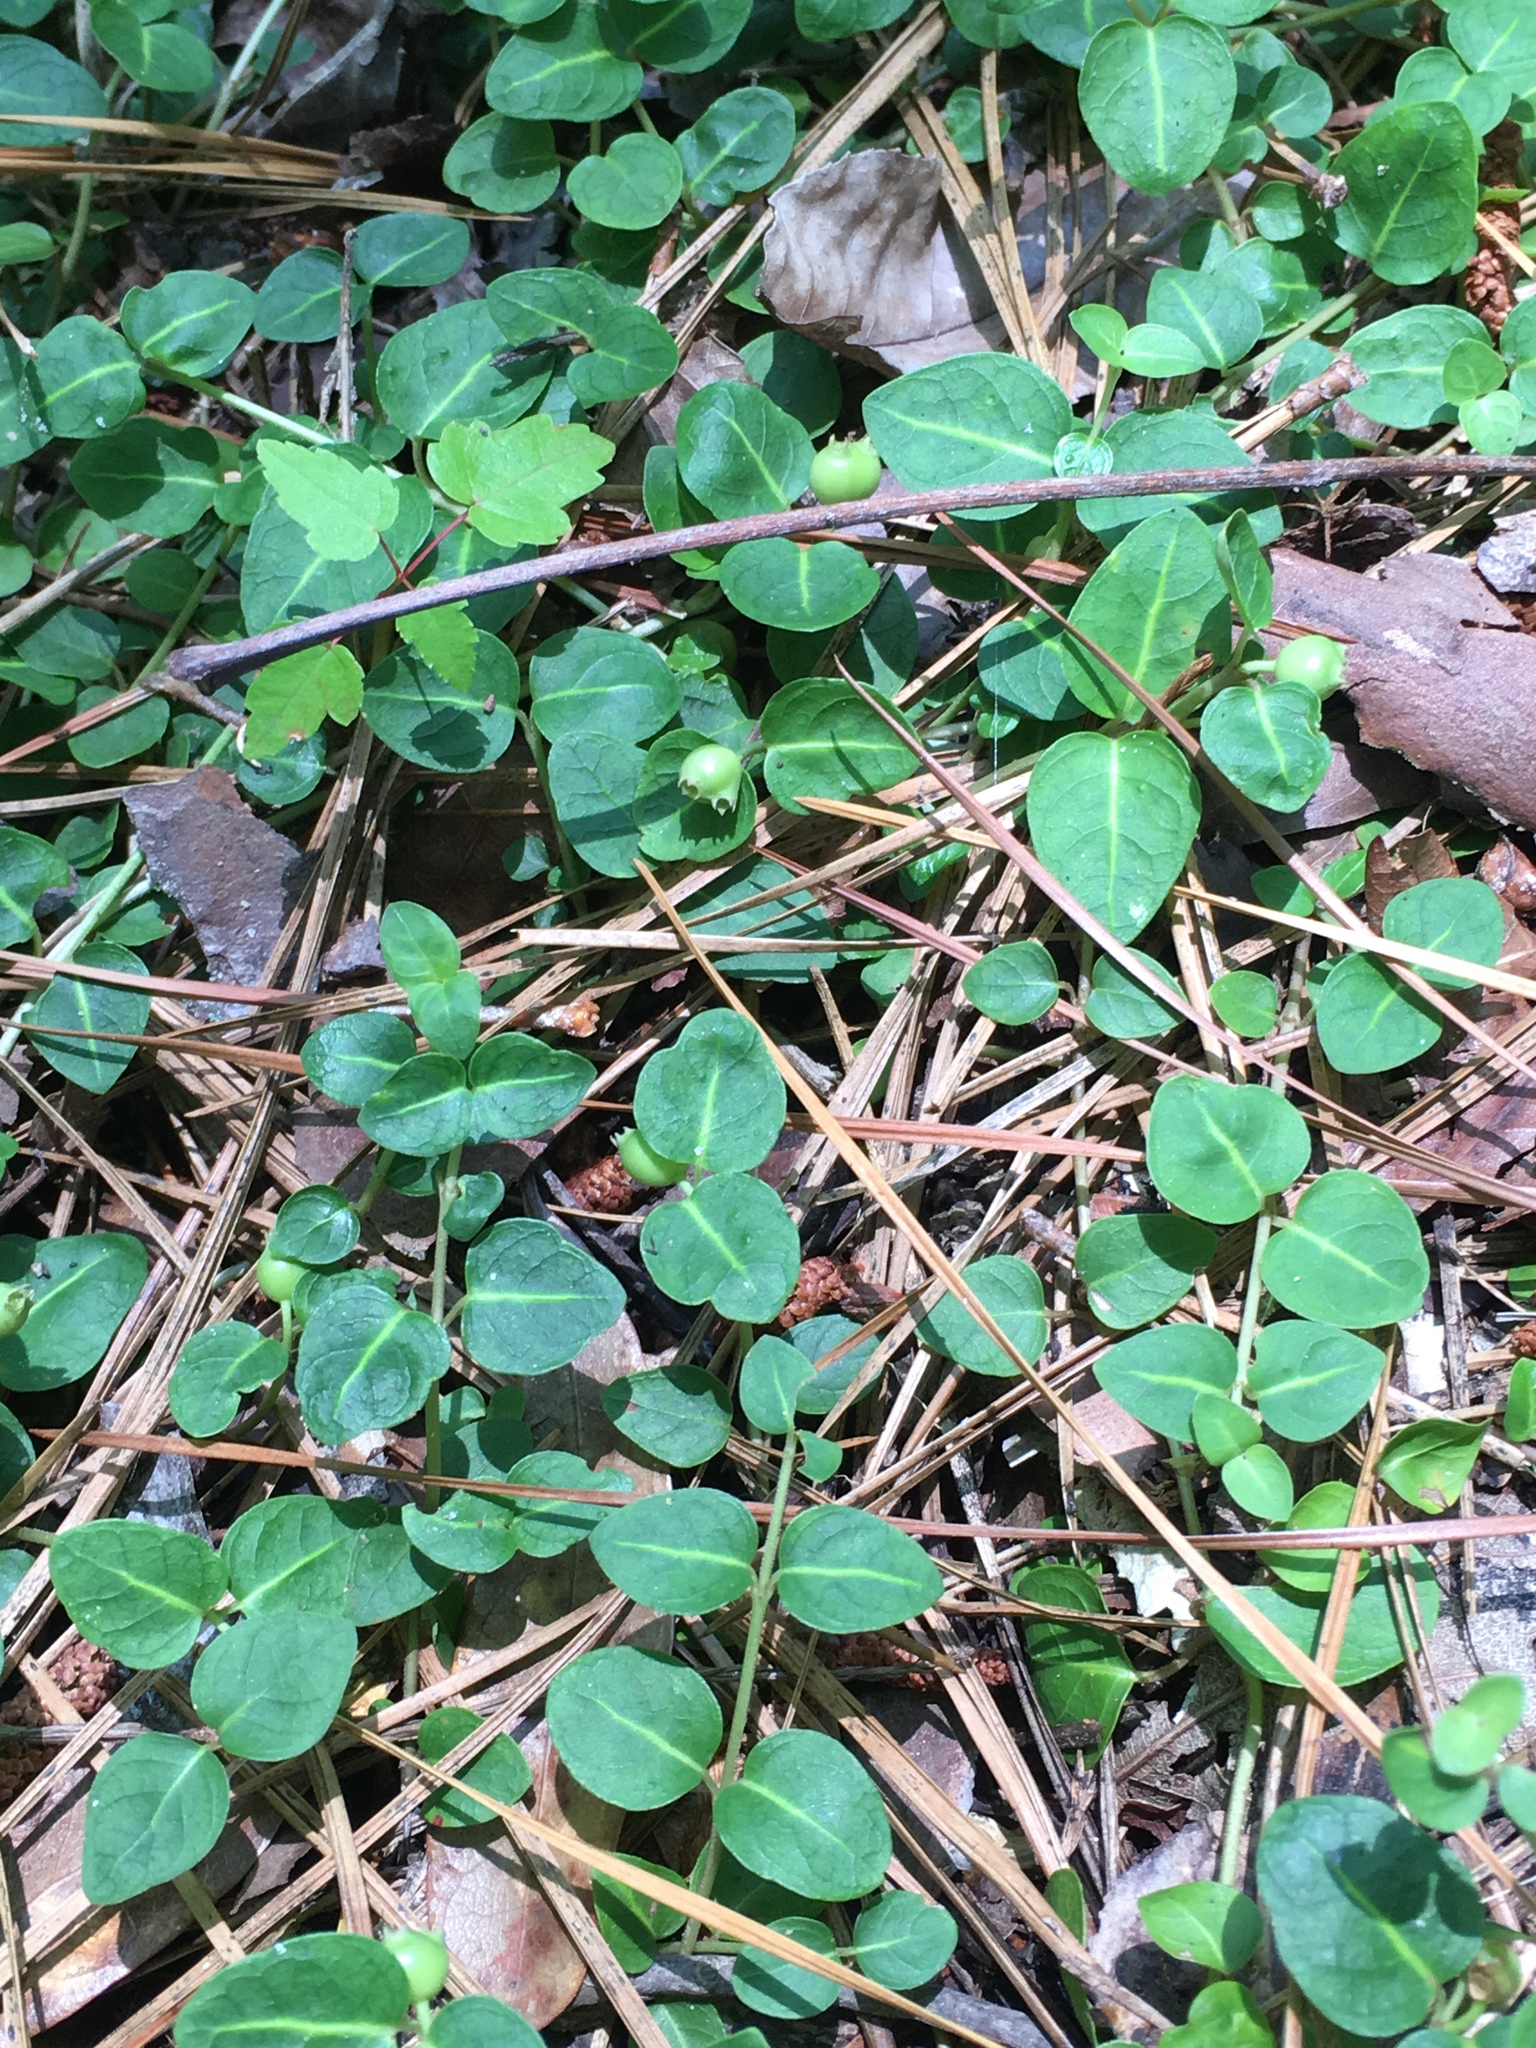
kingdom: Plantae
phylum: Tracheophyta
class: Magnoliopsida
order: Gentianales
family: Rubiaceae
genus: Mitchella
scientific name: Mitchella repens
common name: Partridge-berry
